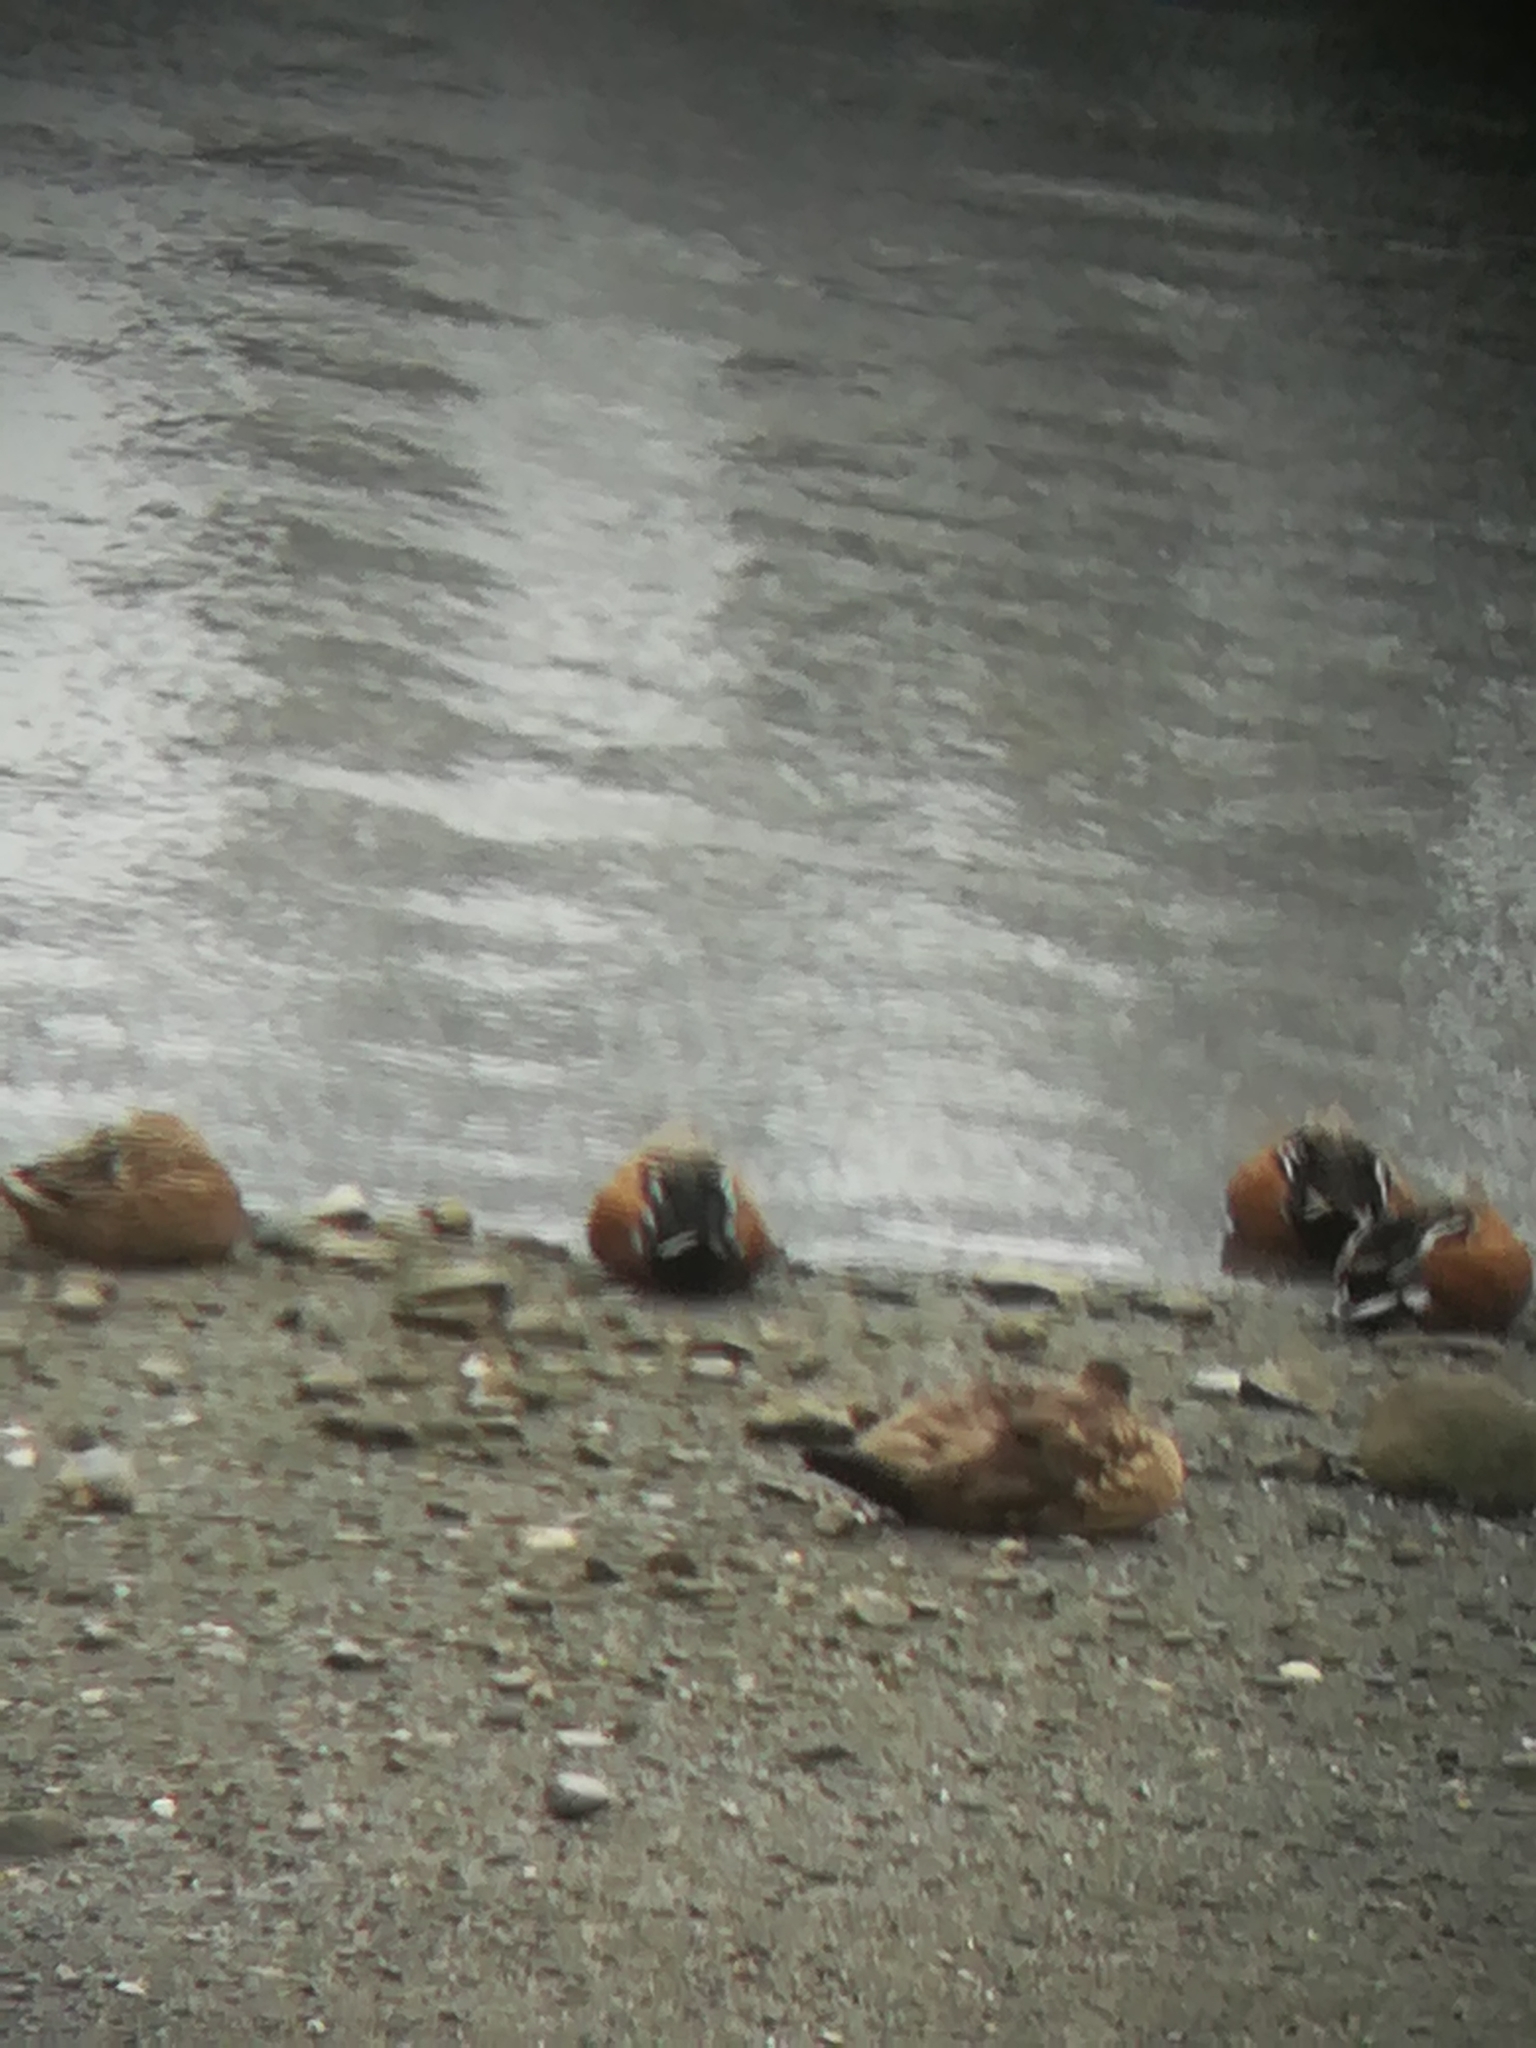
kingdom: Animalia
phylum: Chordata
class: Aves
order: Anseriformes
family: Anatidae
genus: Spatula
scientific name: Spatula platalea
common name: Red shoveler
